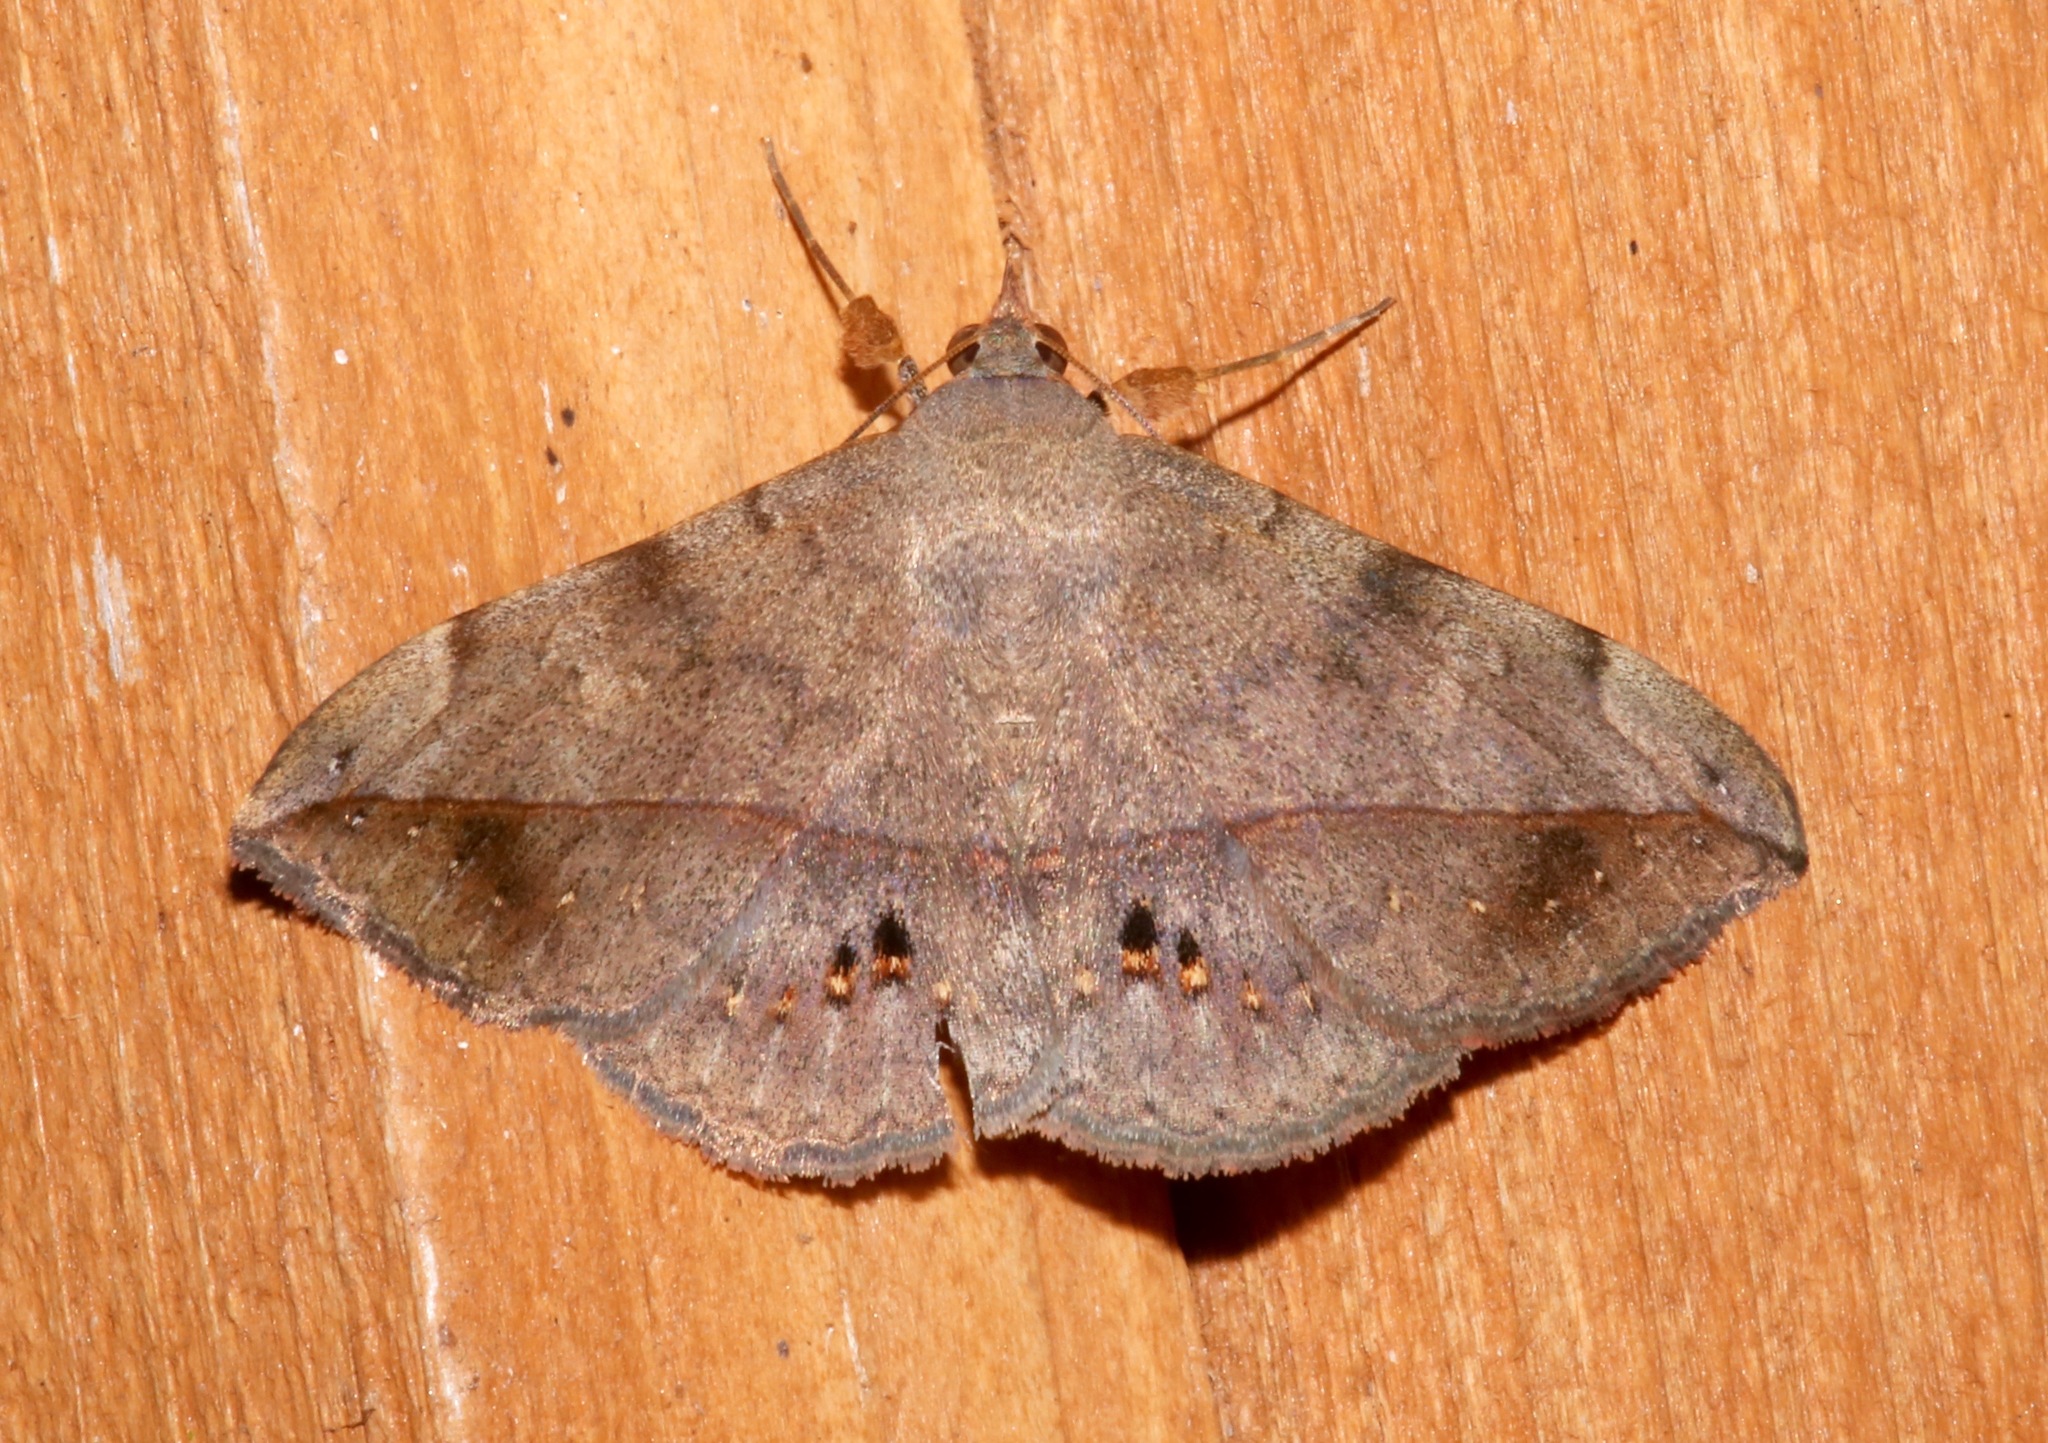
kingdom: Animalia
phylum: Arthropoda
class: Insecta
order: Lepidoptera
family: Erebidae
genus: Anticarsia
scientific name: Anticarsia gemmatalis
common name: Cutworm moth
